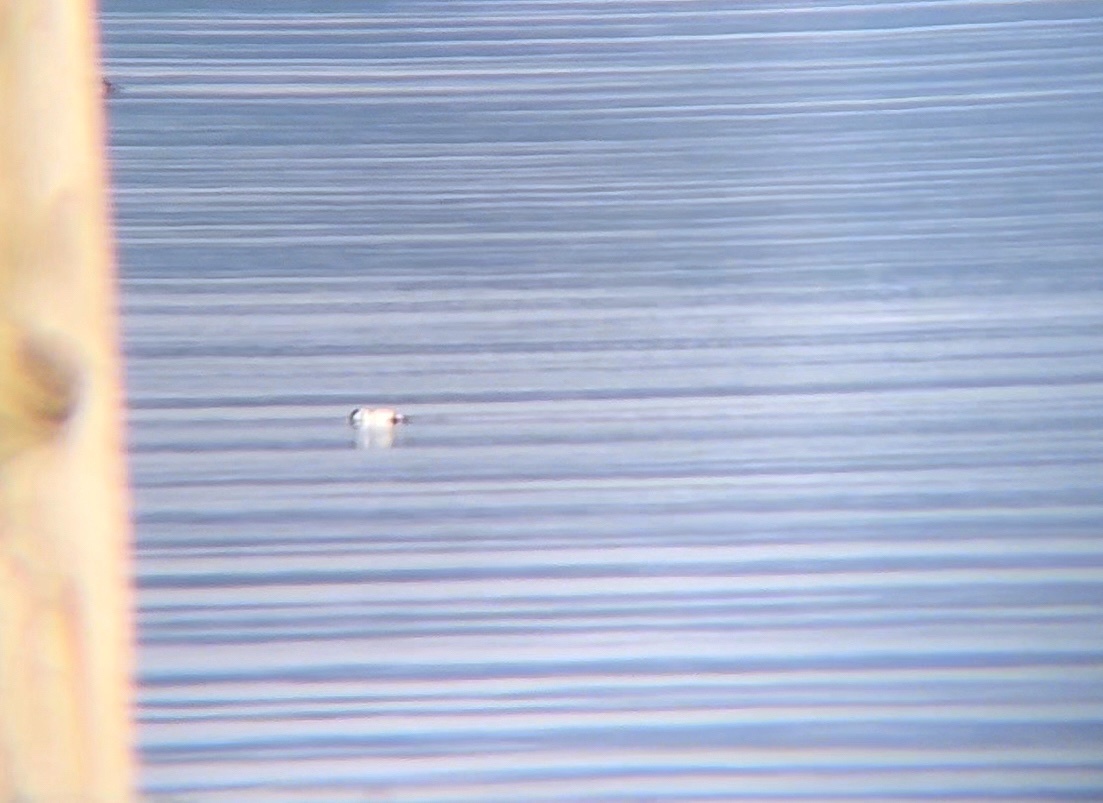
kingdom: Animalia
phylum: Chordata
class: Aves
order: Anseriformes
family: Anatidae
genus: Somateria
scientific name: Somateria mollissima
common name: Common eider
